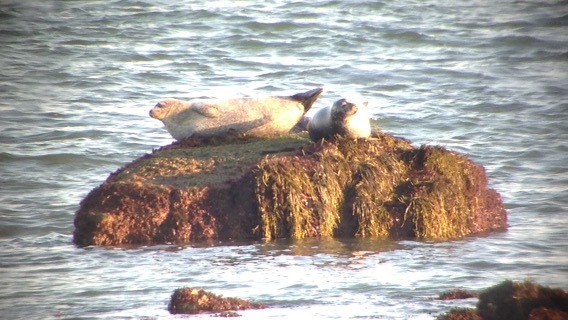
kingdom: Animalia
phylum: Chordata
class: Mammalia
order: Carnivora
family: Phocidae
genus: Phoca
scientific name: Phoca vitulina
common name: Harbor seal
